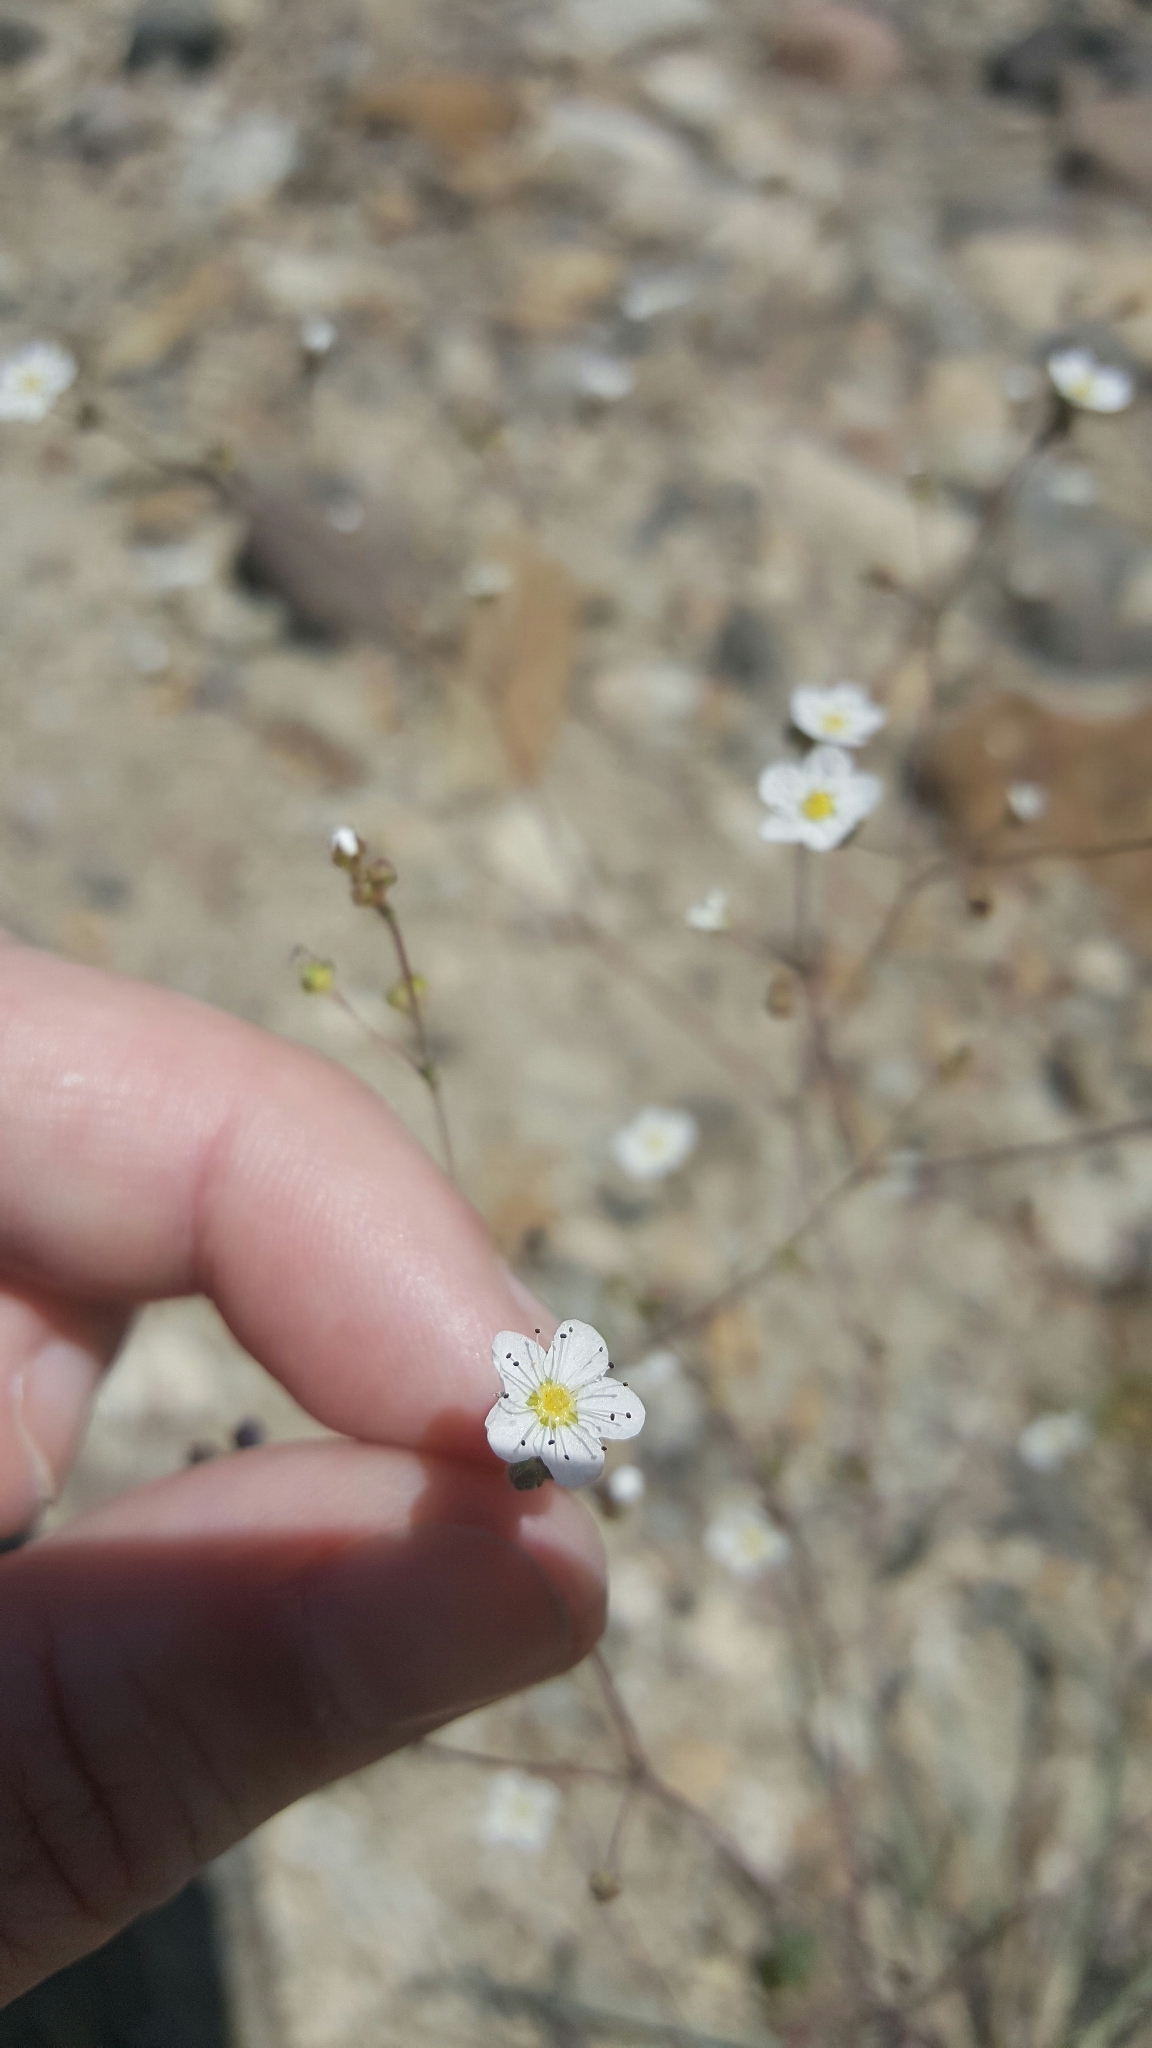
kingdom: Plantae
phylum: Tracheophyta
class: Magnoliopsida
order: Rosales
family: Rosaceae
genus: Potentilla
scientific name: Potentilla santolinoides
